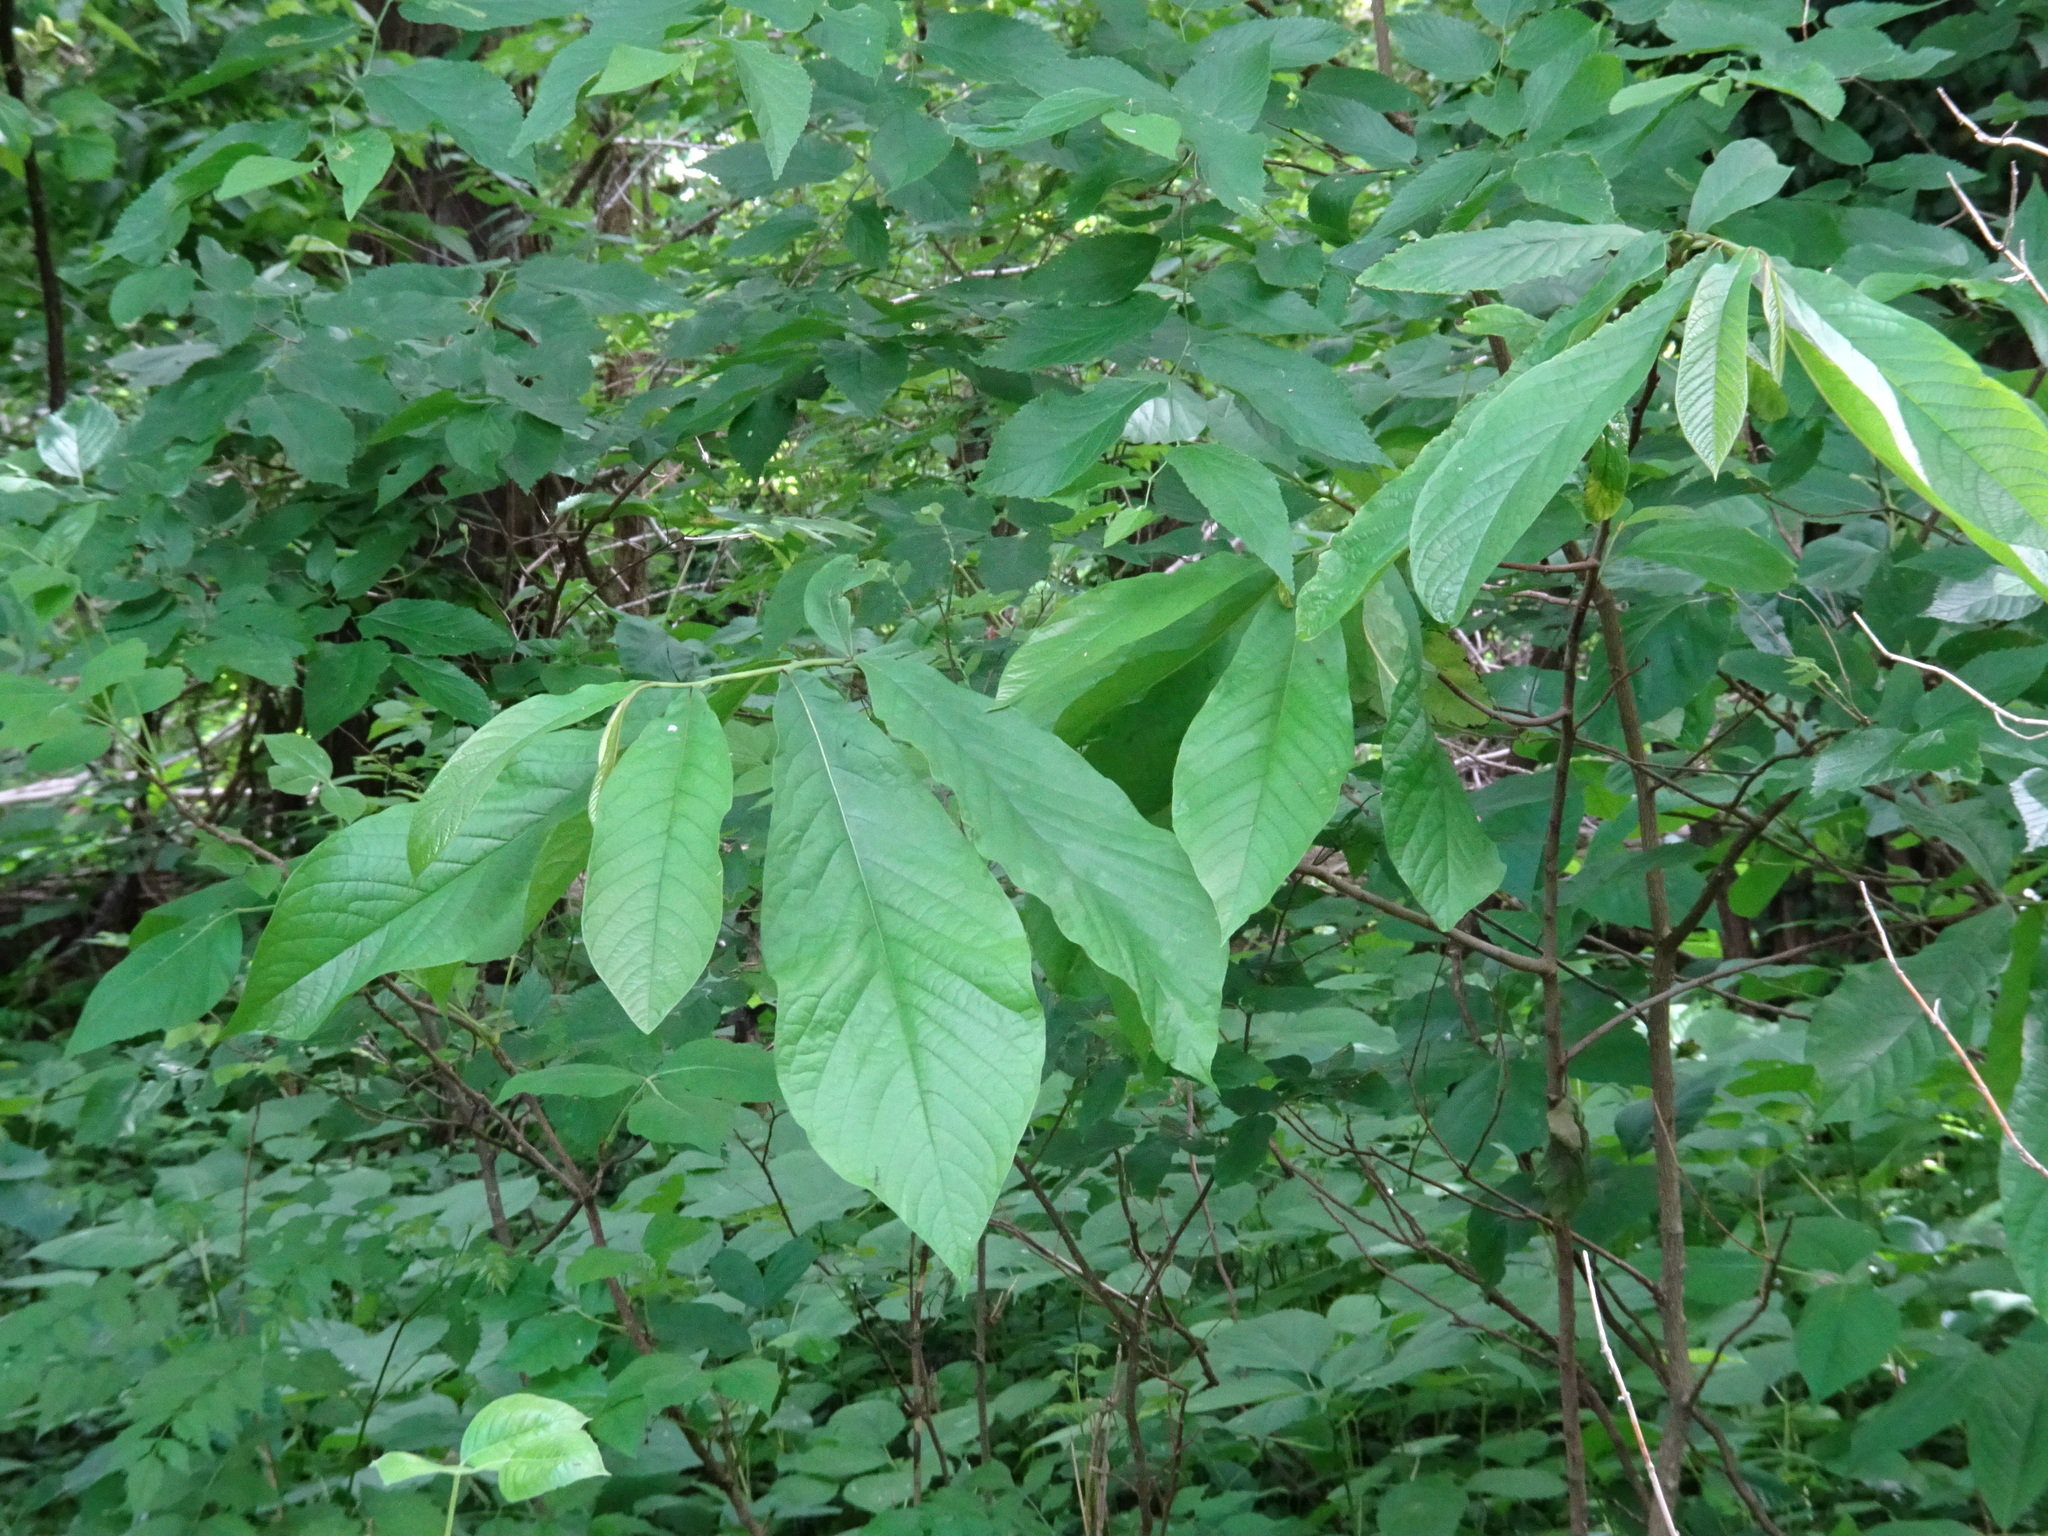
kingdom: Plantae
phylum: Tracheophyta
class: Magnoliopsida
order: Magnoliales
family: Annonaceae
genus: Asimina
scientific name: Asimina triloba
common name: Dog-banana
